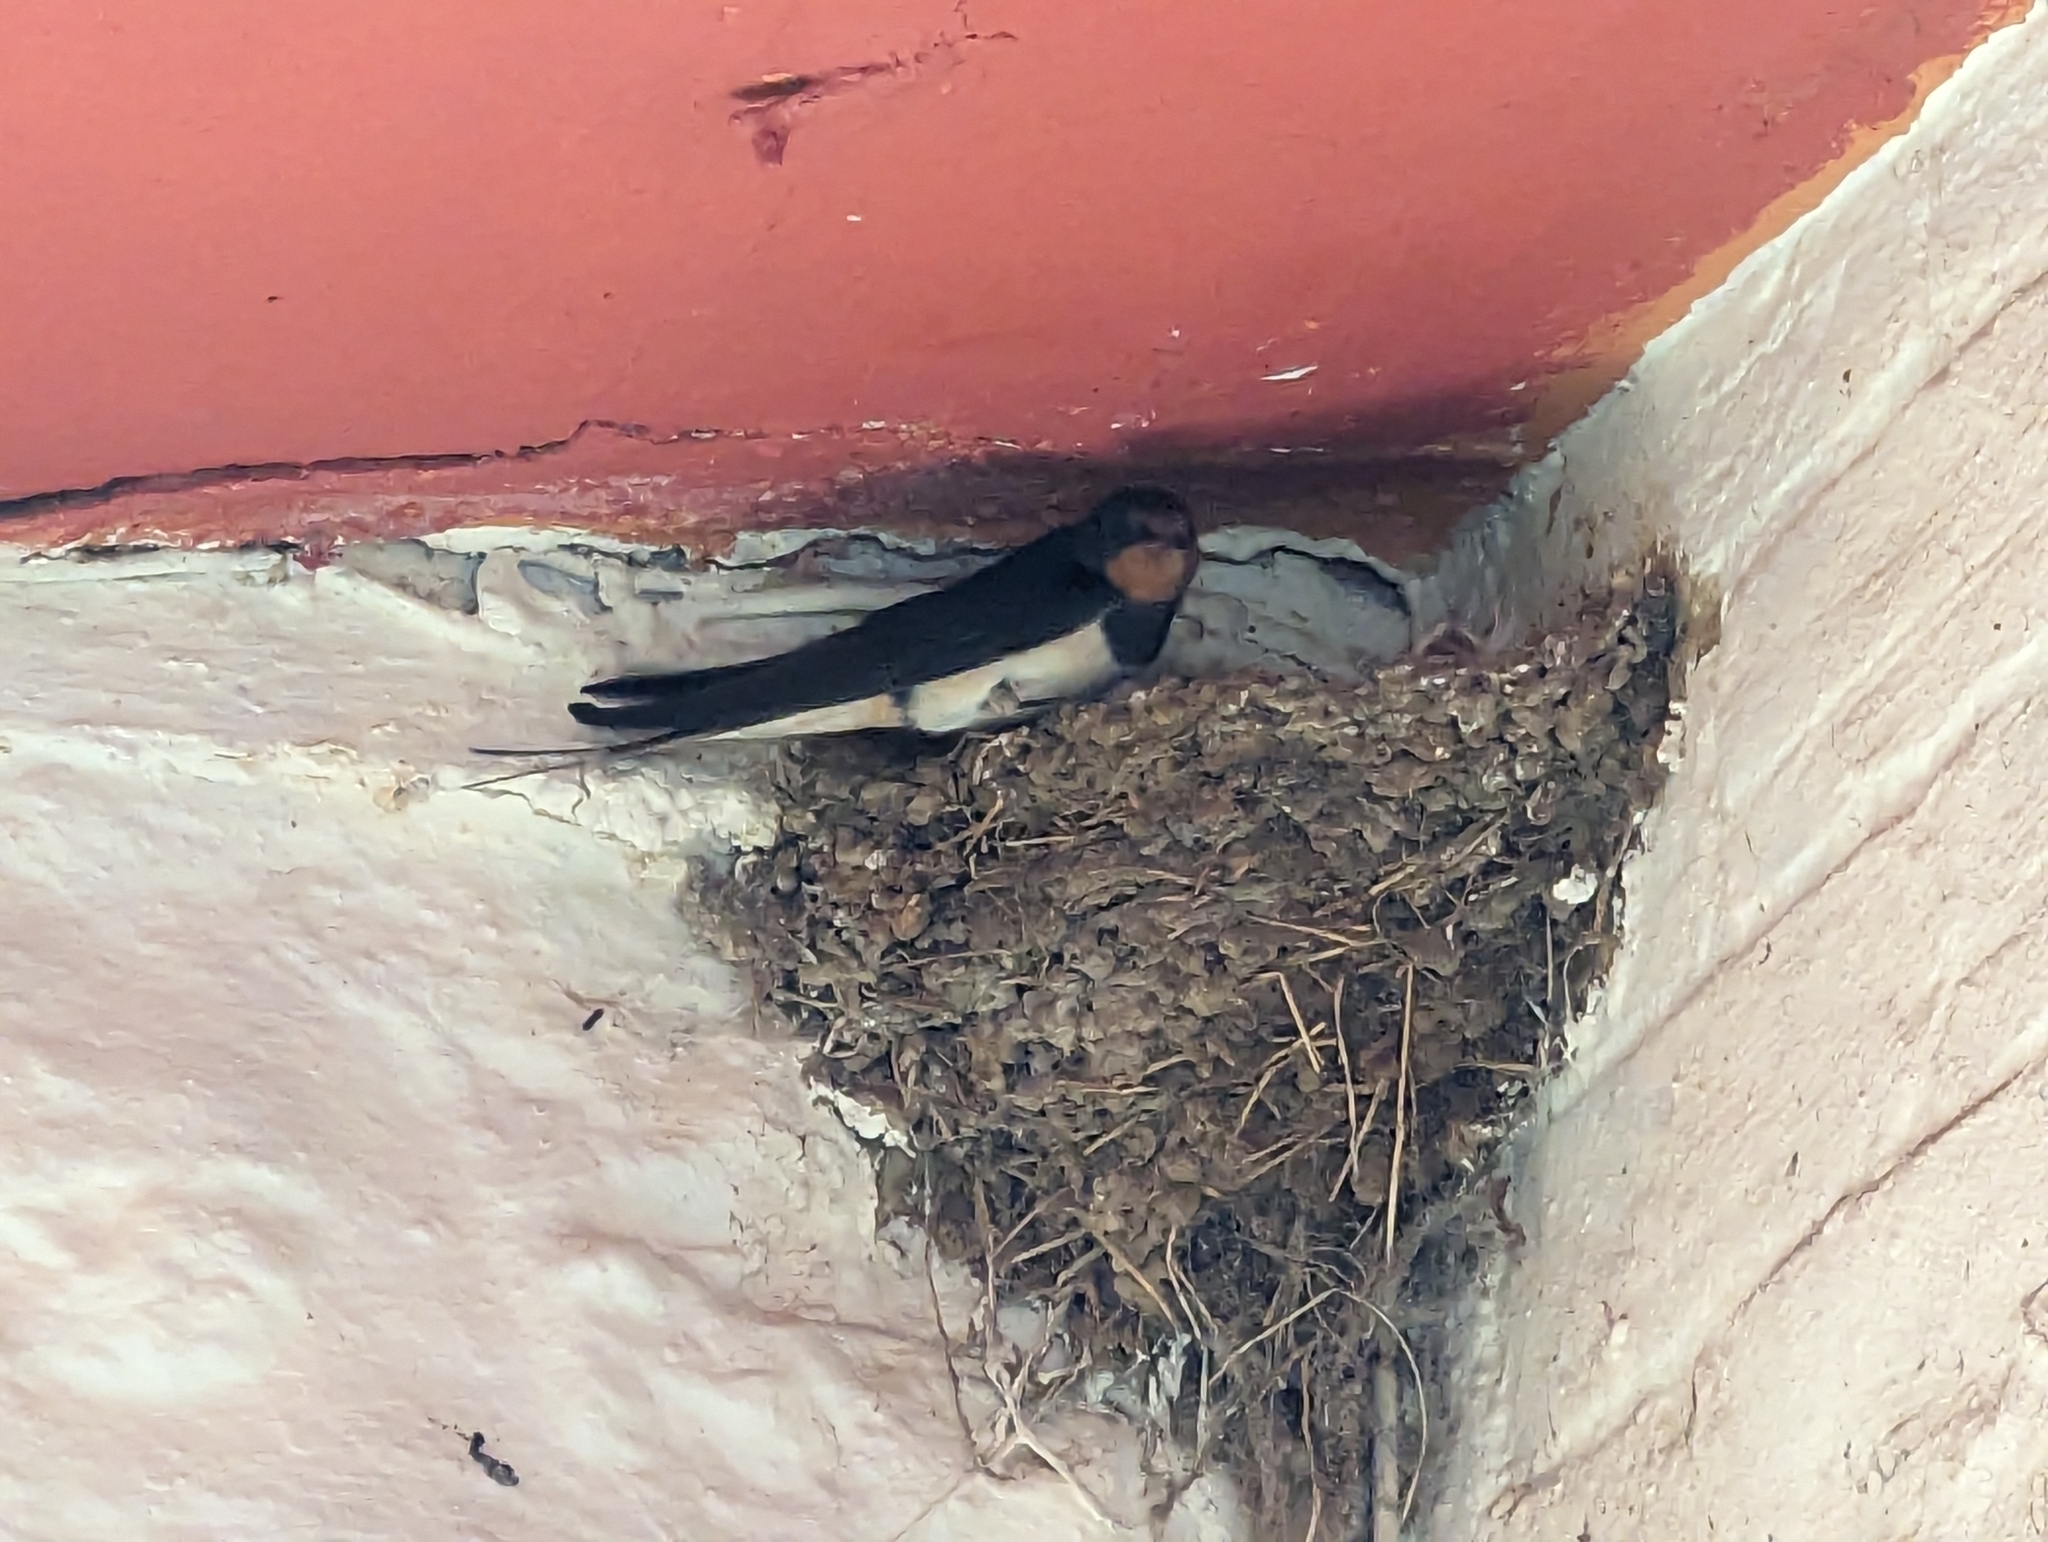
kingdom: Animalia
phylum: Chordata
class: Aves
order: Passeriformes
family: Hirundinidae
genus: Hirundo
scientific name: Hirundo rustica
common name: Barn swallow
